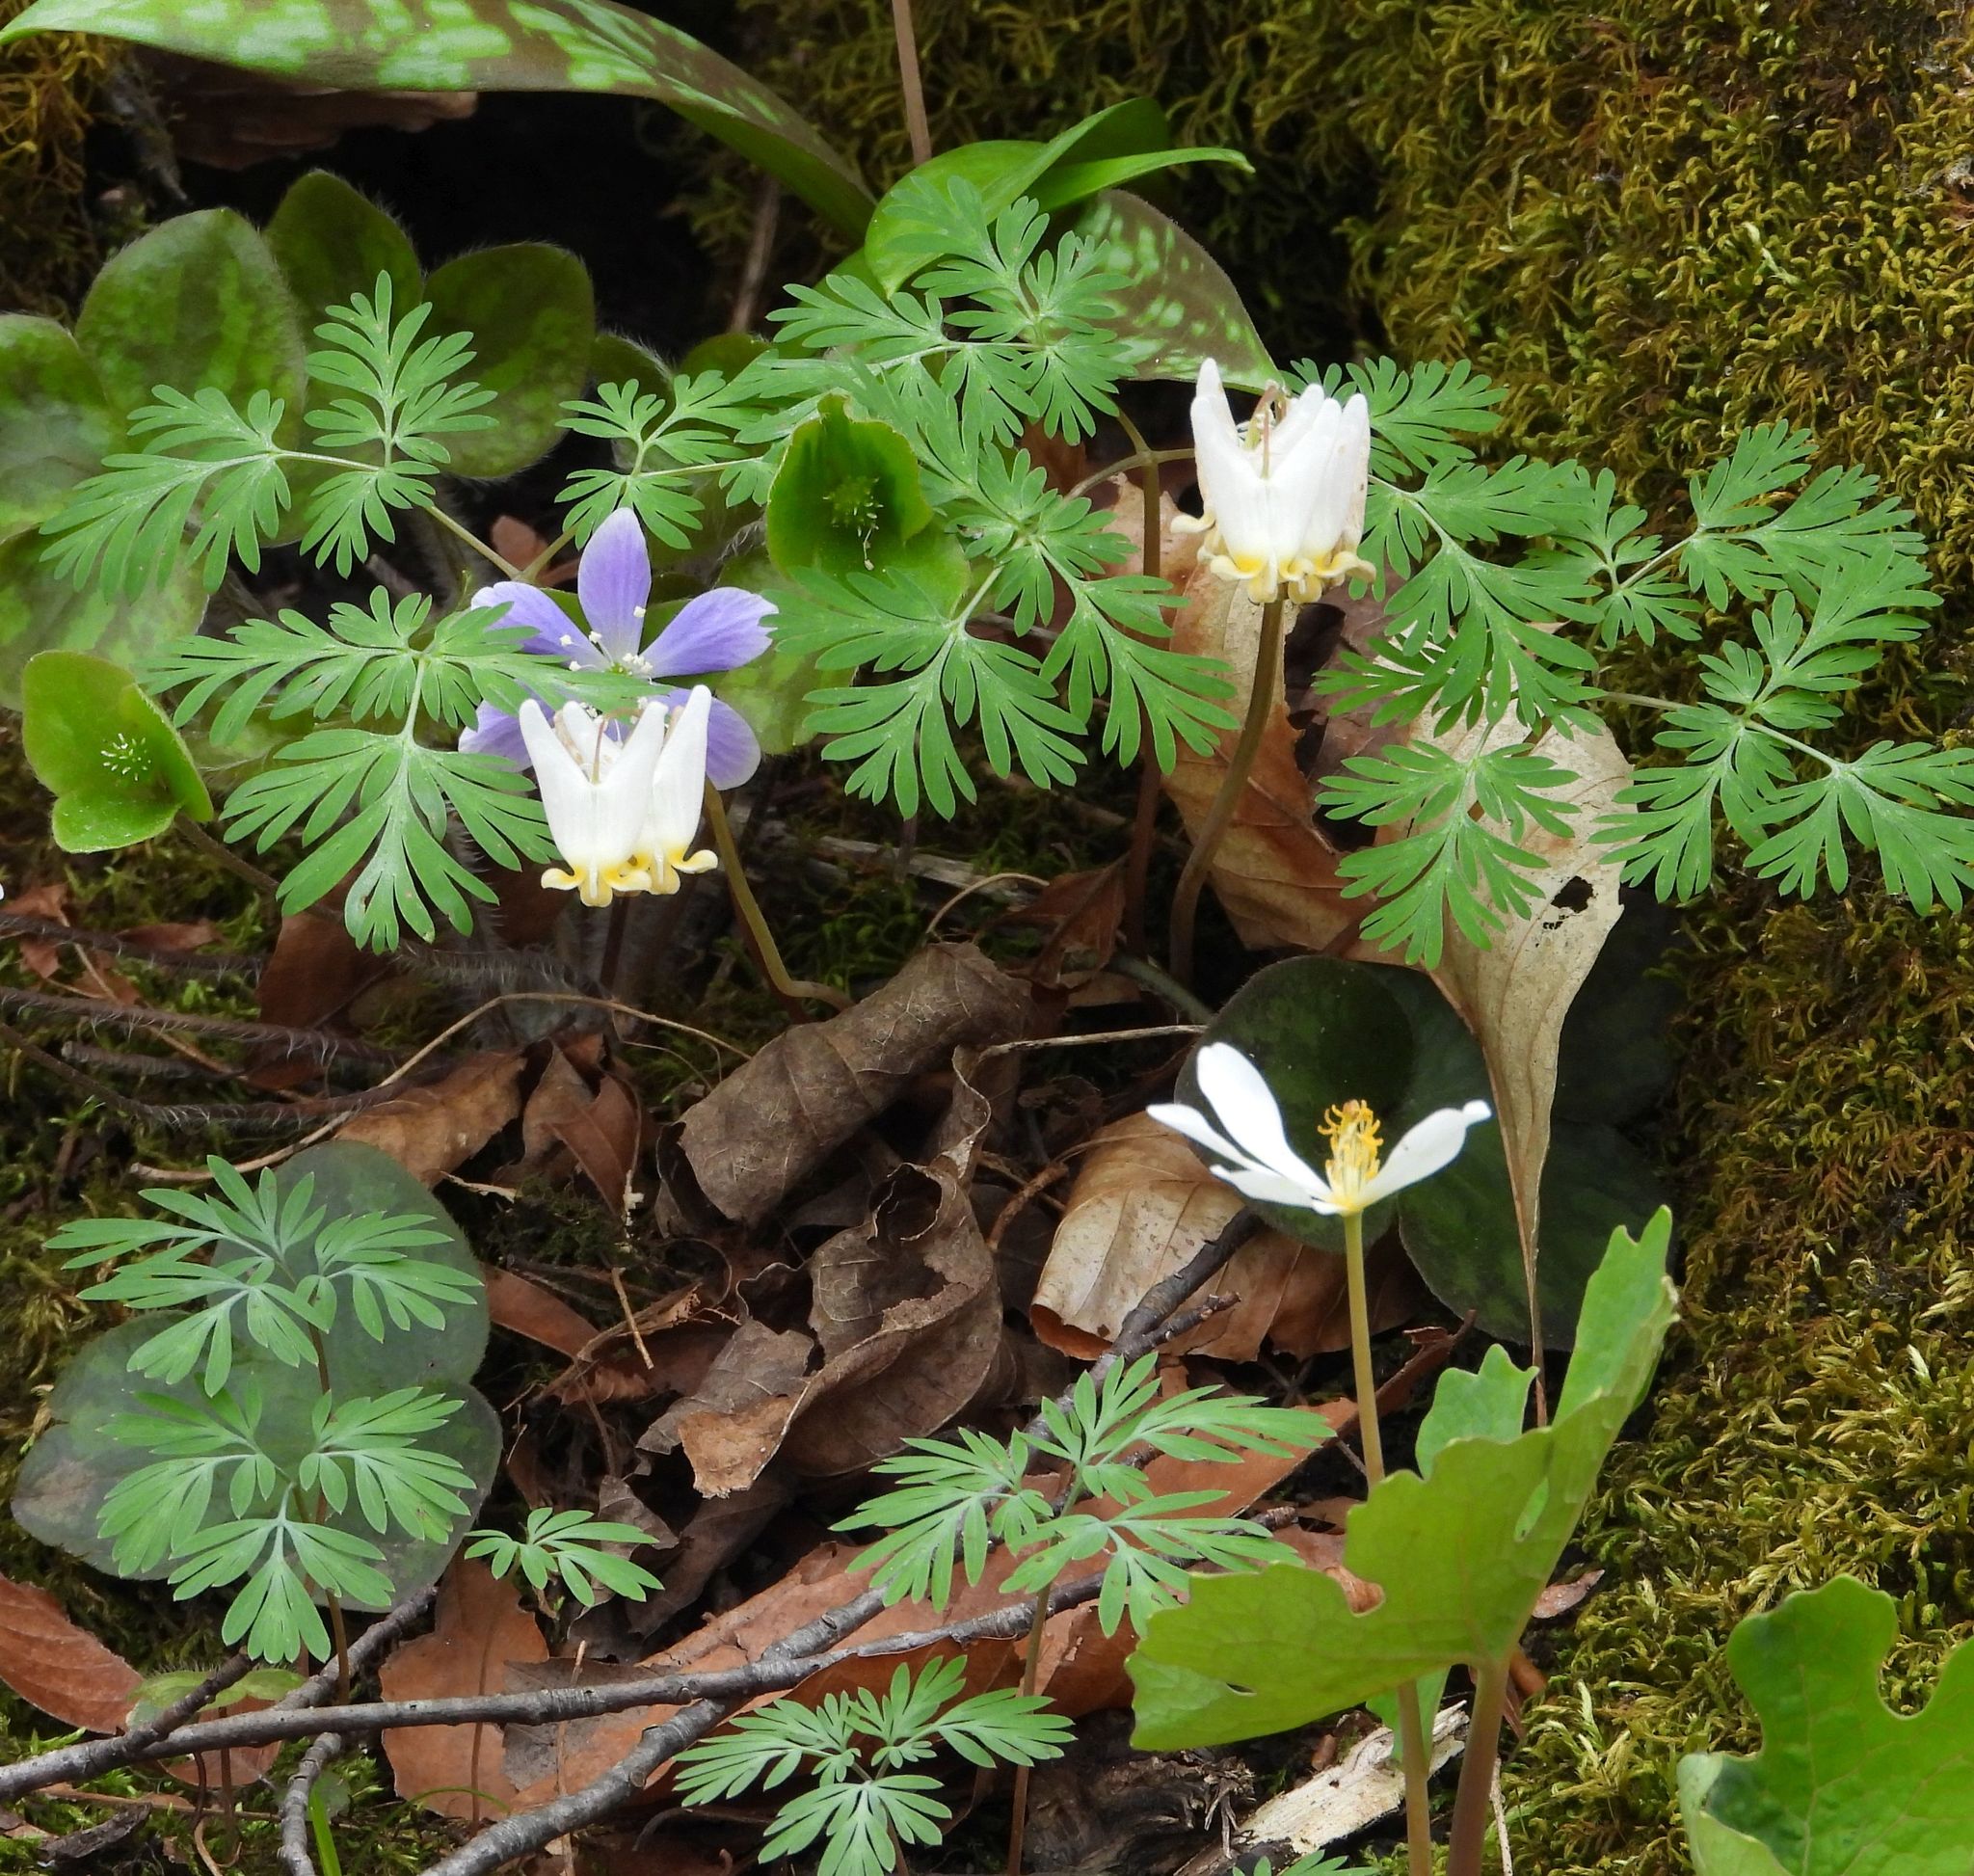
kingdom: Plantae
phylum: Tracheophyta
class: Magnoliopsida
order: Ranunculales
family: Papaveraceae
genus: Dicentra
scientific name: Dicentra cucullaria
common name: Dutchman's breeches
